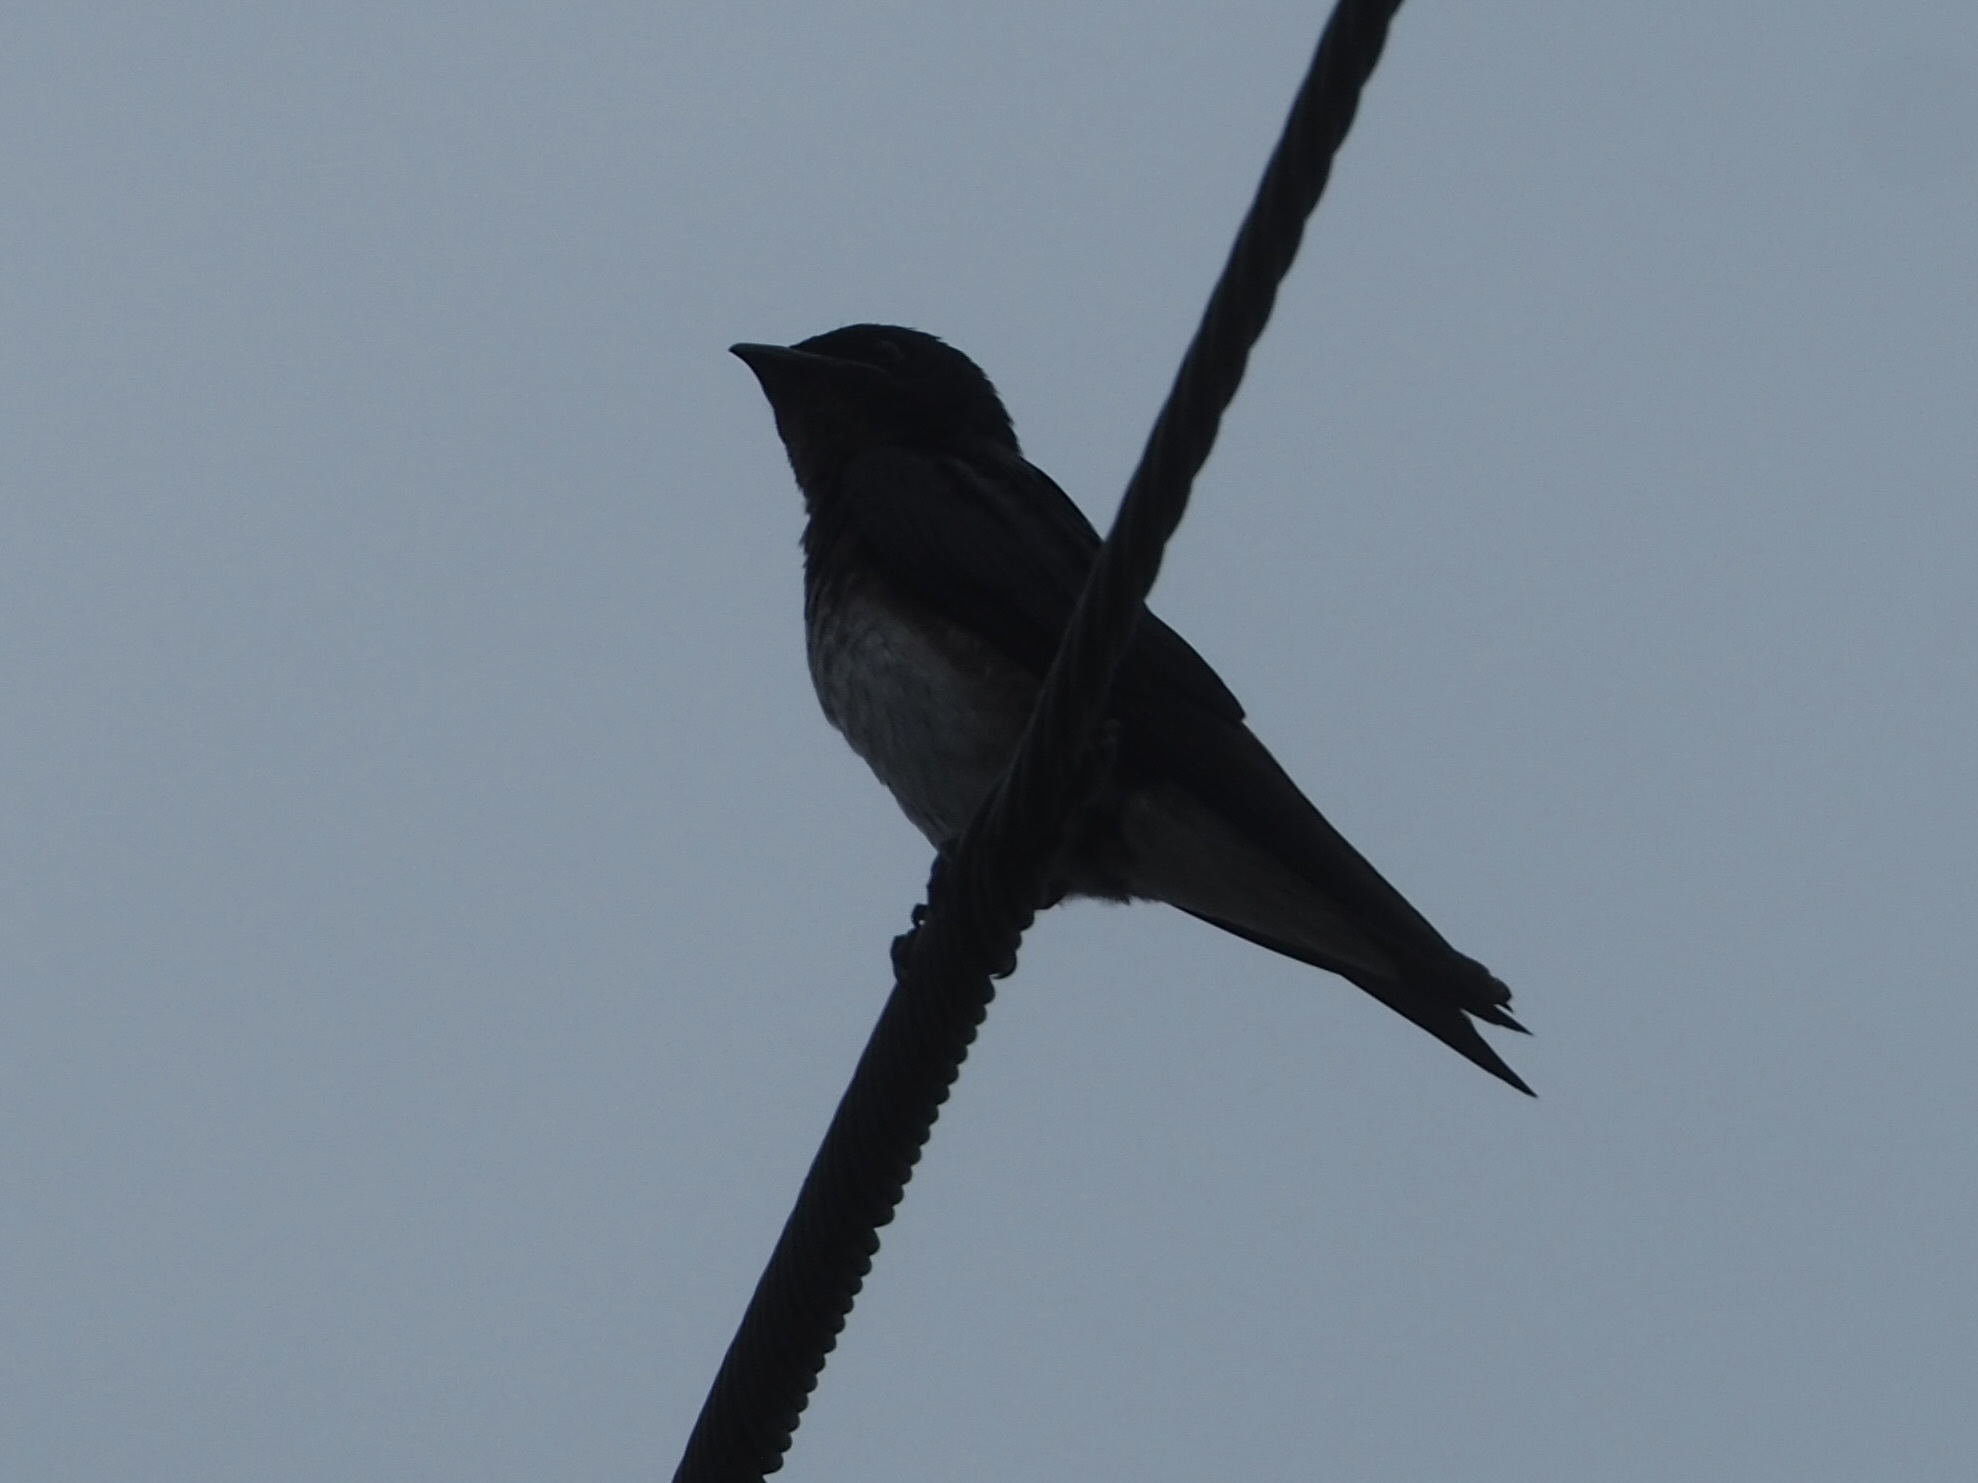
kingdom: Animalia
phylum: Chordata
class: Aves
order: Passeriformes
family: Hirundinidae
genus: Progne
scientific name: Progne chalybea
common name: Grey-breasted martin
